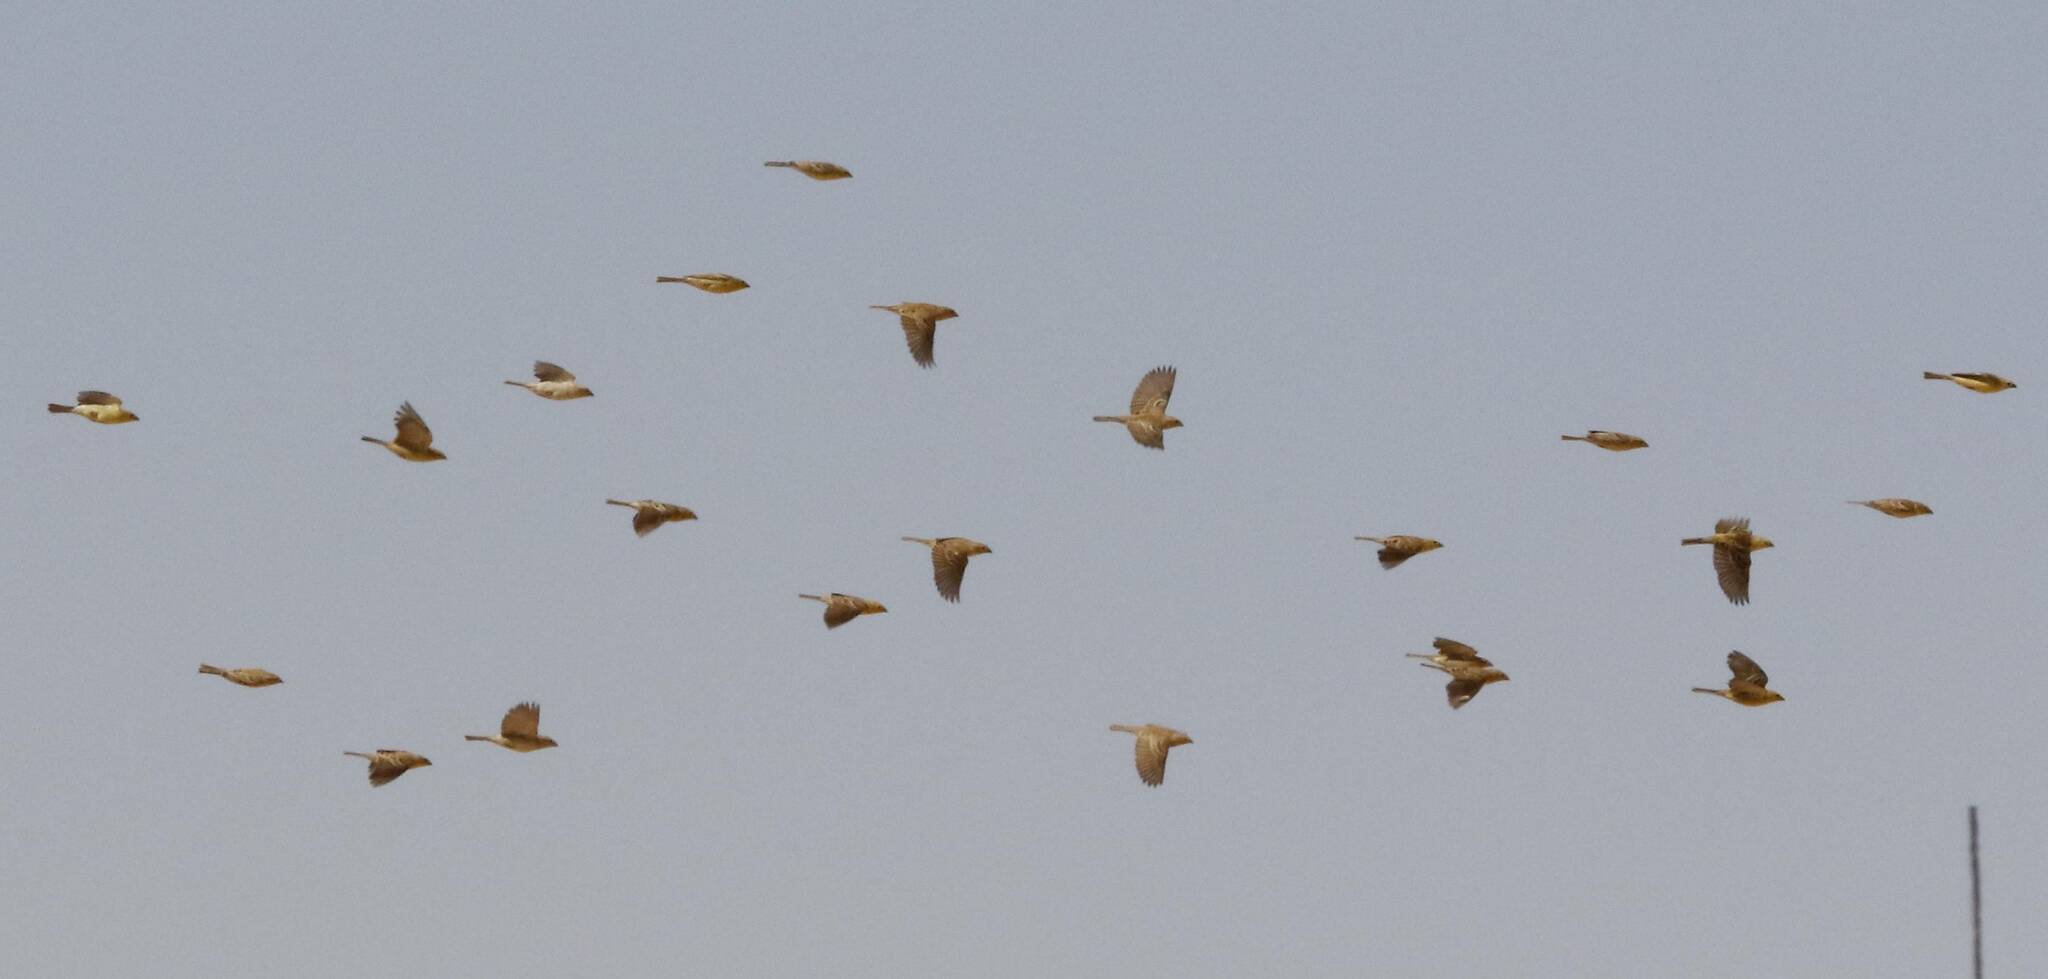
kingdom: Animalia
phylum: Chordata
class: Aves
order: Passeriformes
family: Passeridae
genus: Passer
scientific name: Passer luteus
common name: Sudan golden sparrow
